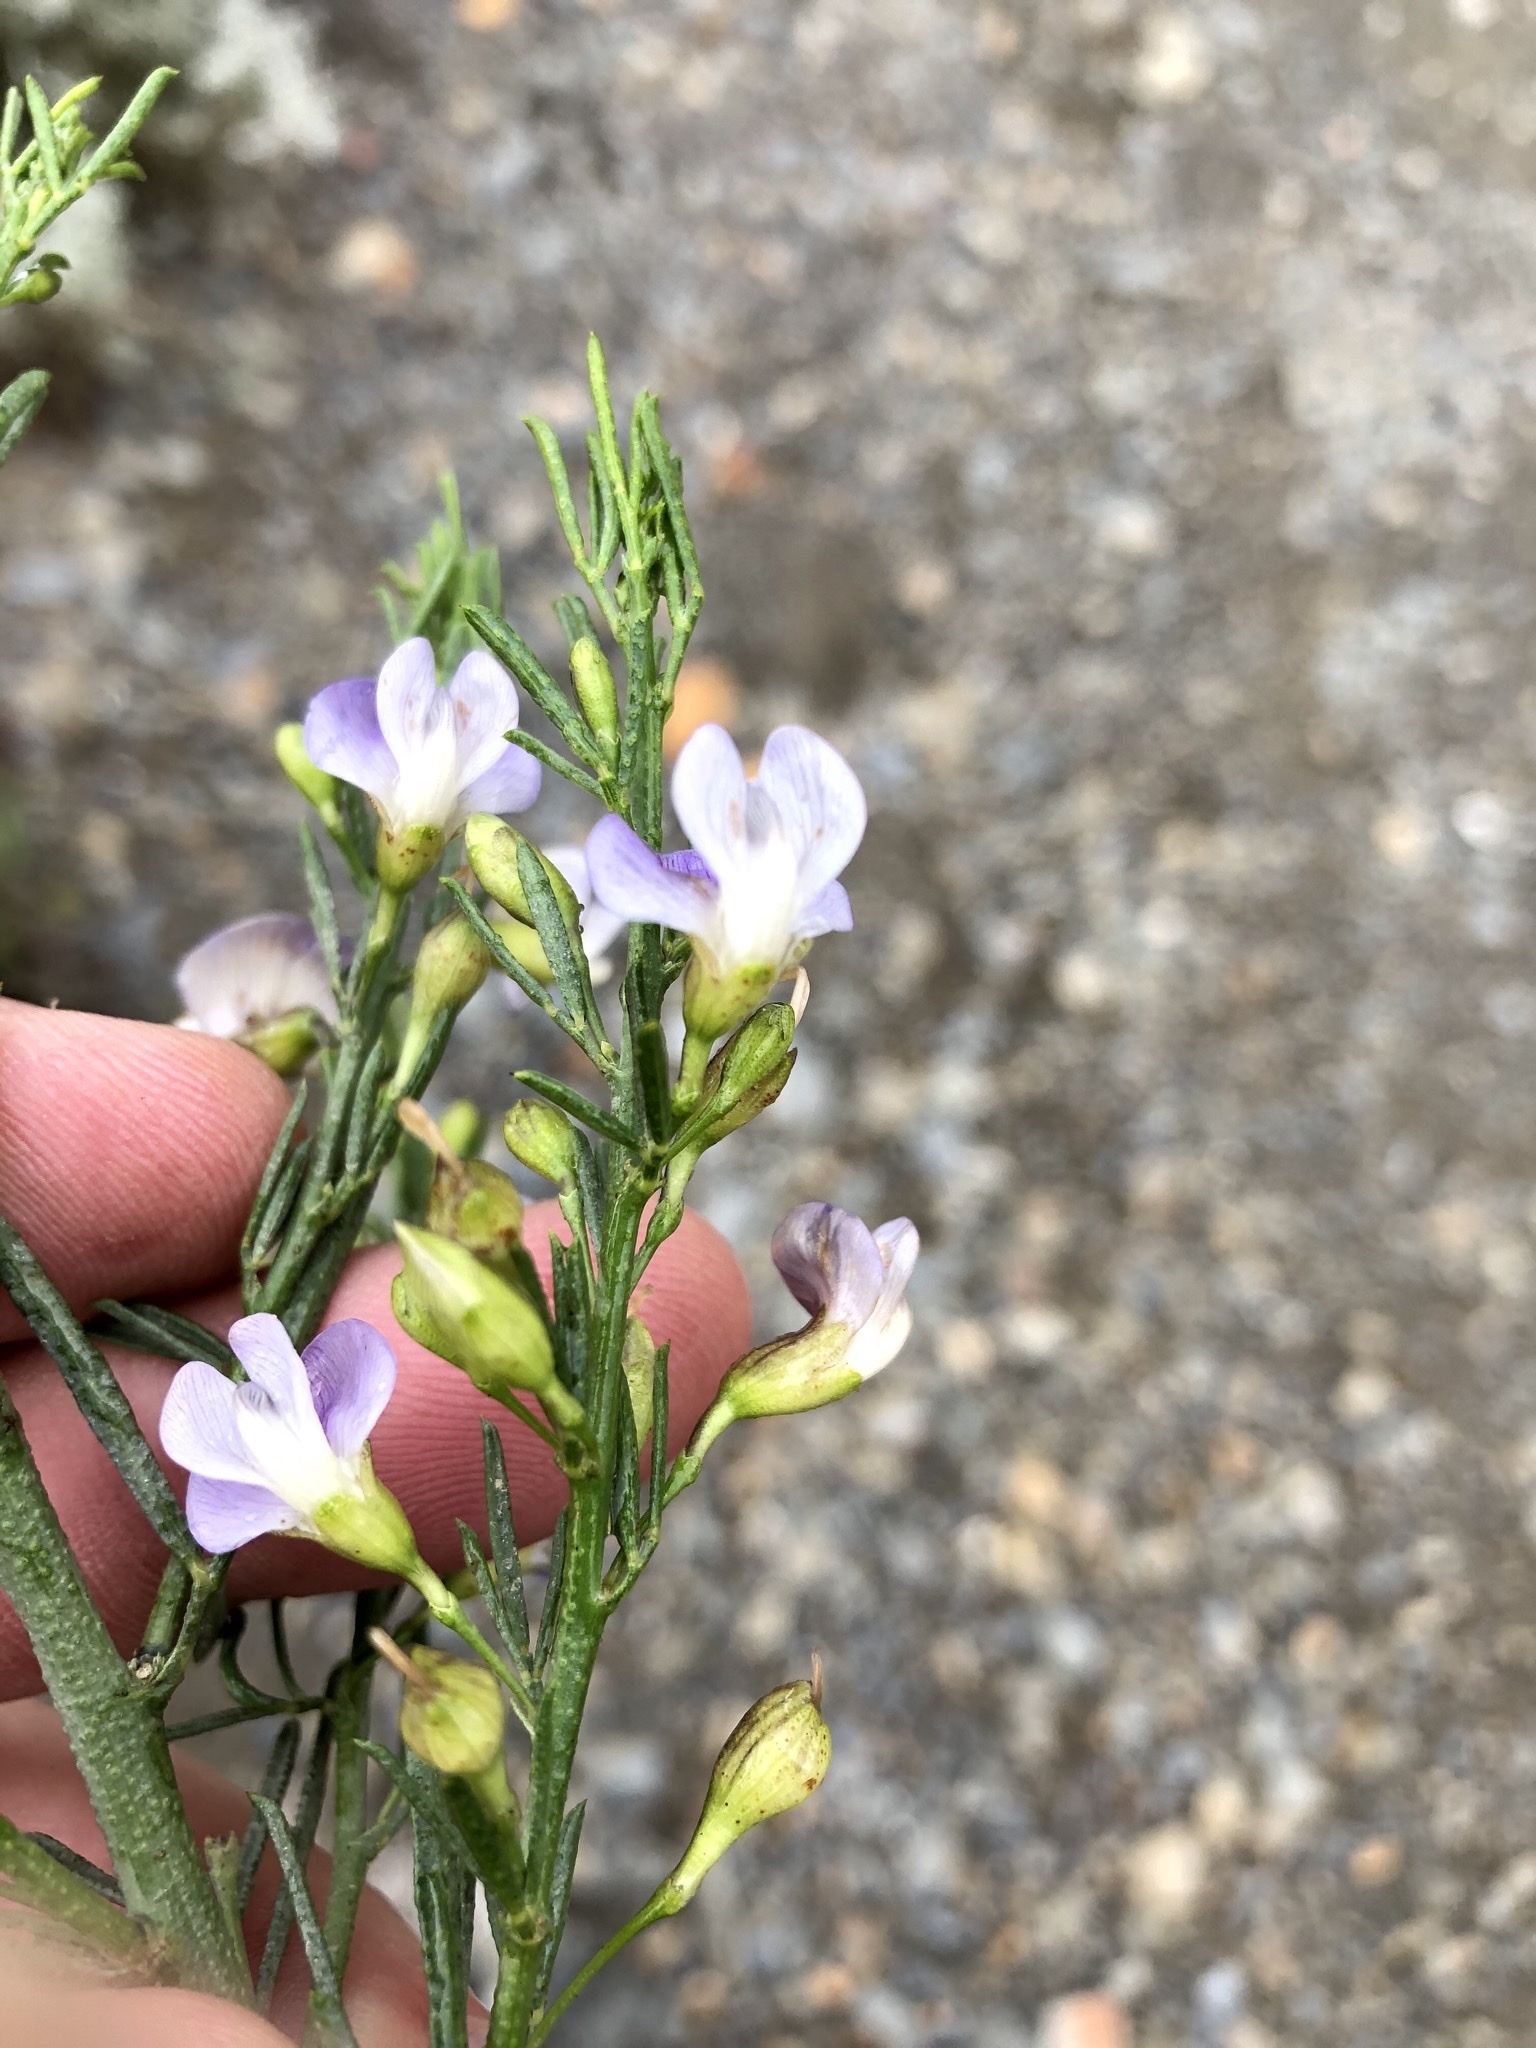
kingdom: Plantae
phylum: Tracheophyta
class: Magnoliopsida
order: Fabales
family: Fabaceae
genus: Psoralea
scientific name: Psoralea forbesiae
